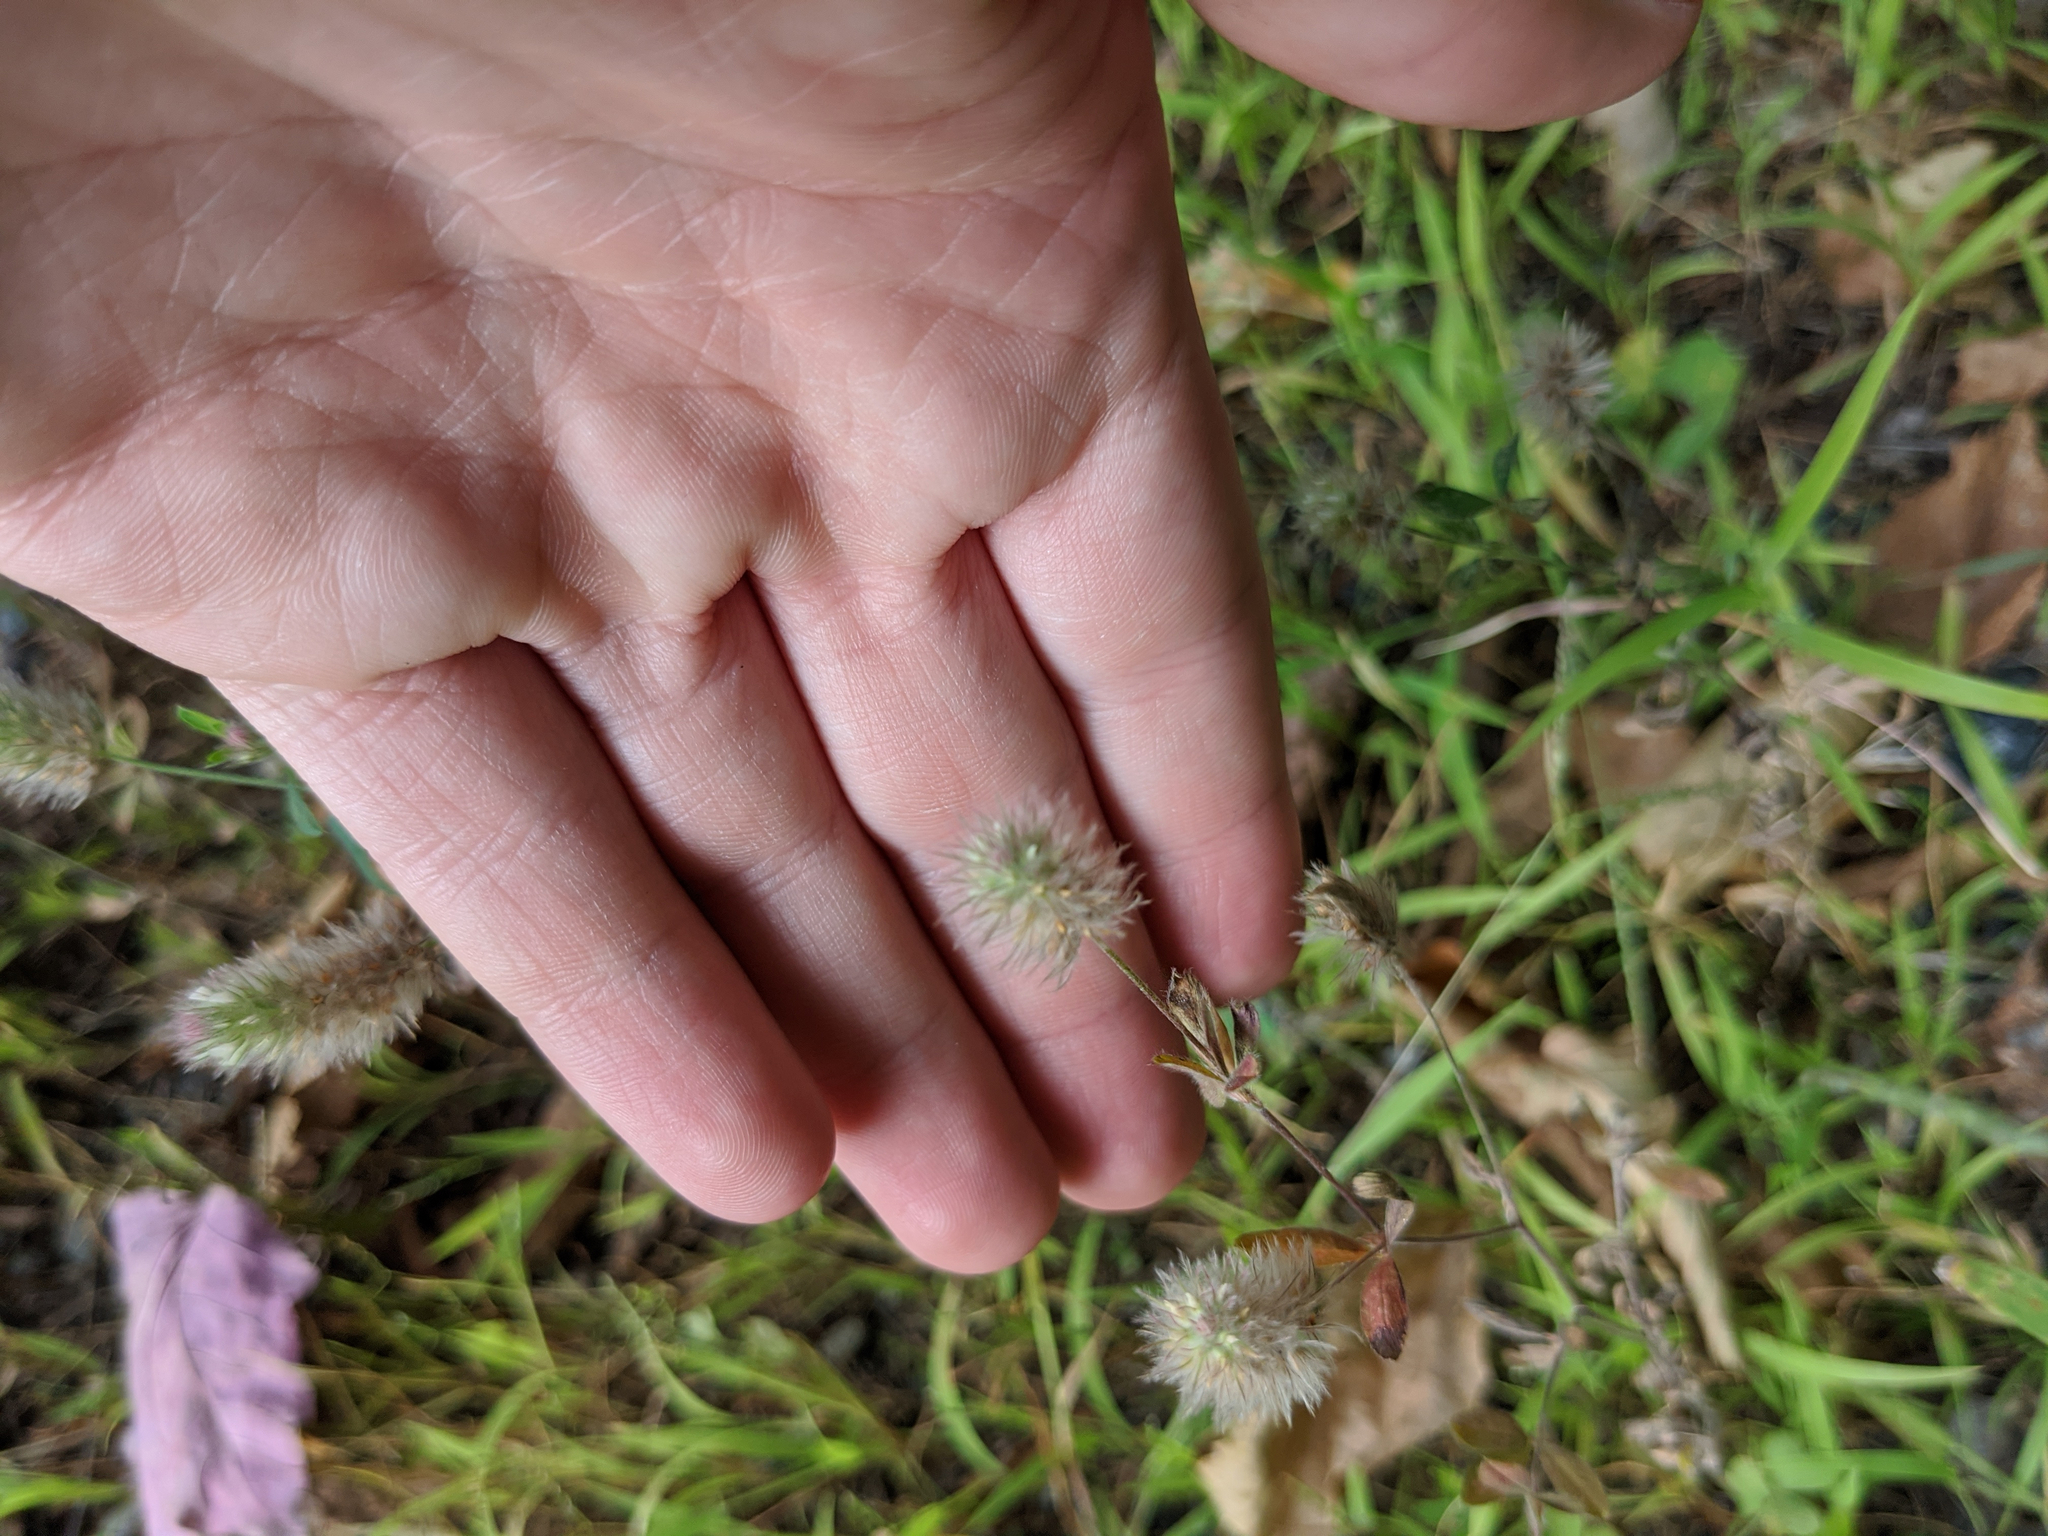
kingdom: Plantae
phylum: Tracheophyta
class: Magnoliopsida
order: Fabales
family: Fabaceae
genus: Trifolium
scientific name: Trifolium arvense
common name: Hare's-foot clover
